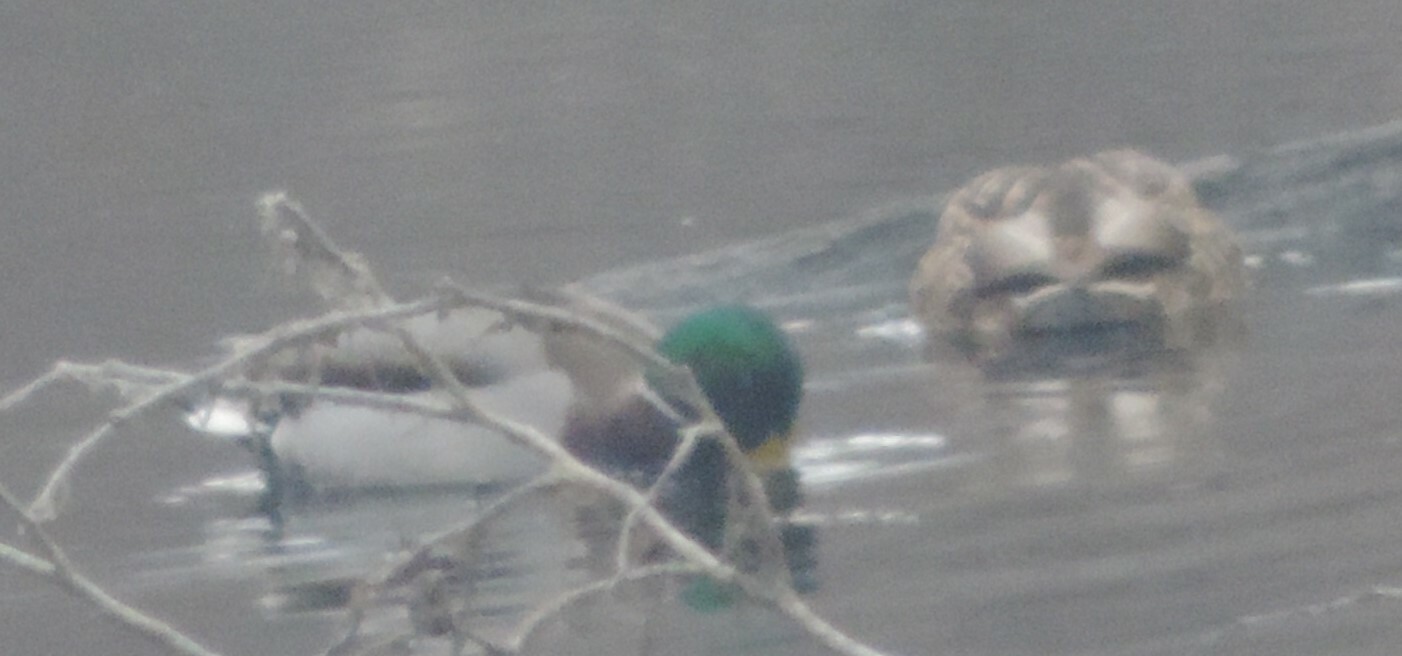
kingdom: Animalia
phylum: Chordata
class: Aves
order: Anseriformes
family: Anatidae
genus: Anas
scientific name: Anas platyrhynchos
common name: Mallard
